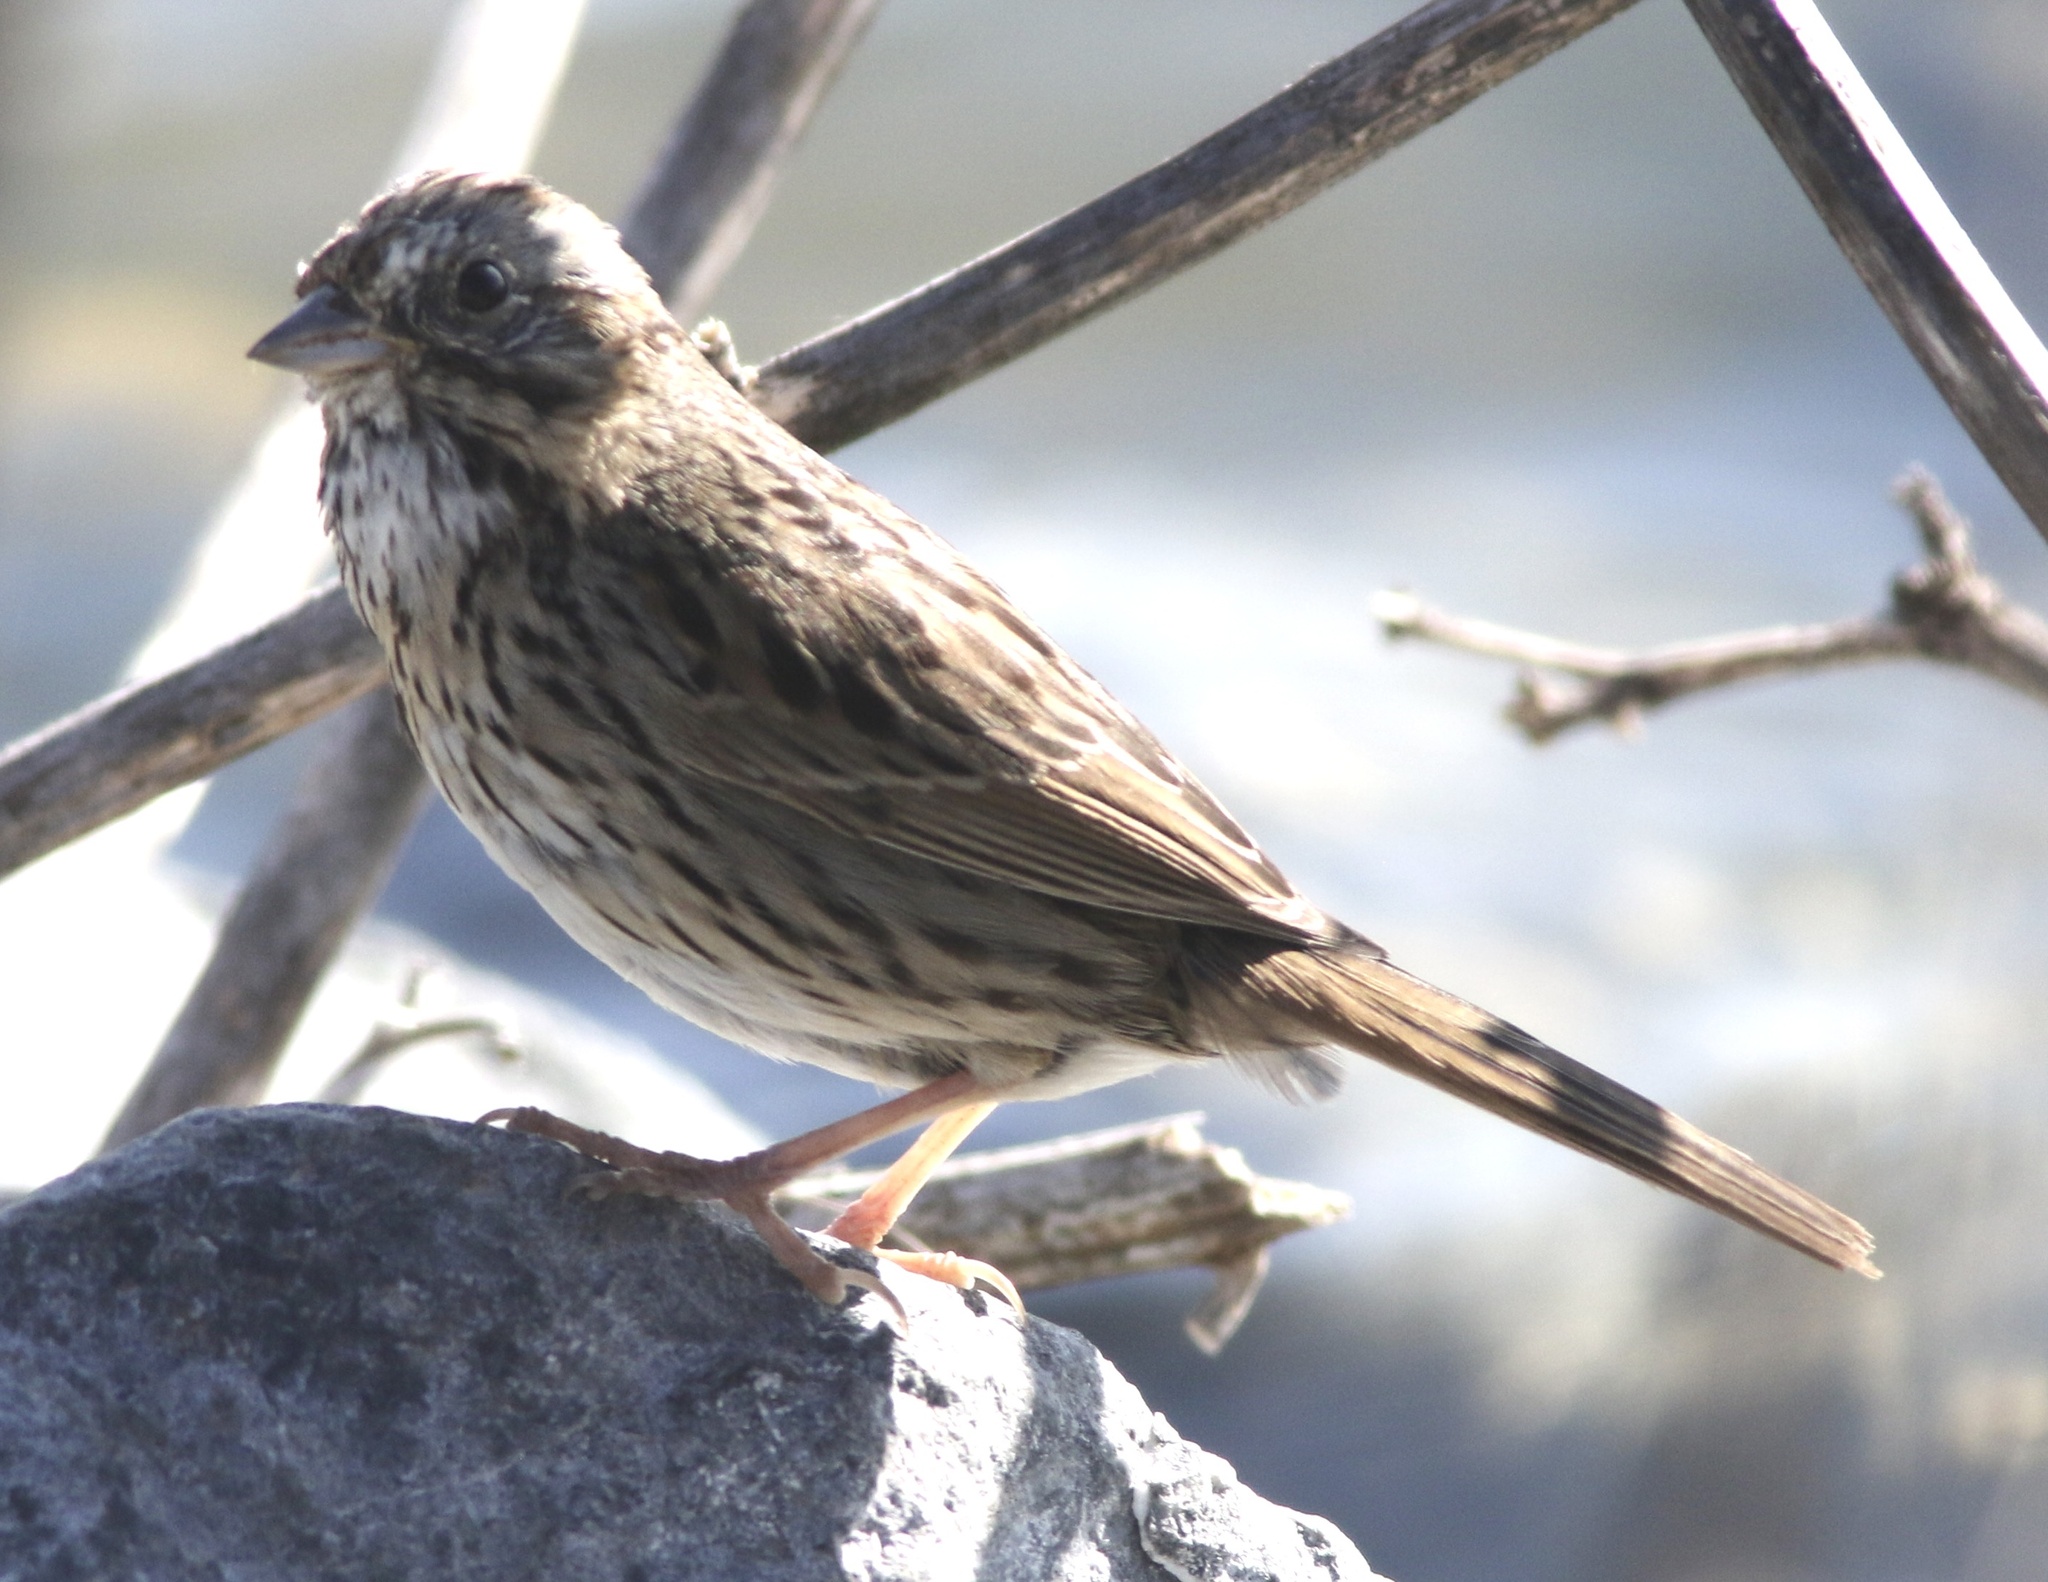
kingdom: Animalia
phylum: Chordata
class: Aves
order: Passeriformes
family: Passerellidae
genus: Melospiza
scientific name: Melospiza lincolnii
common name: Lincoln's sparrow
